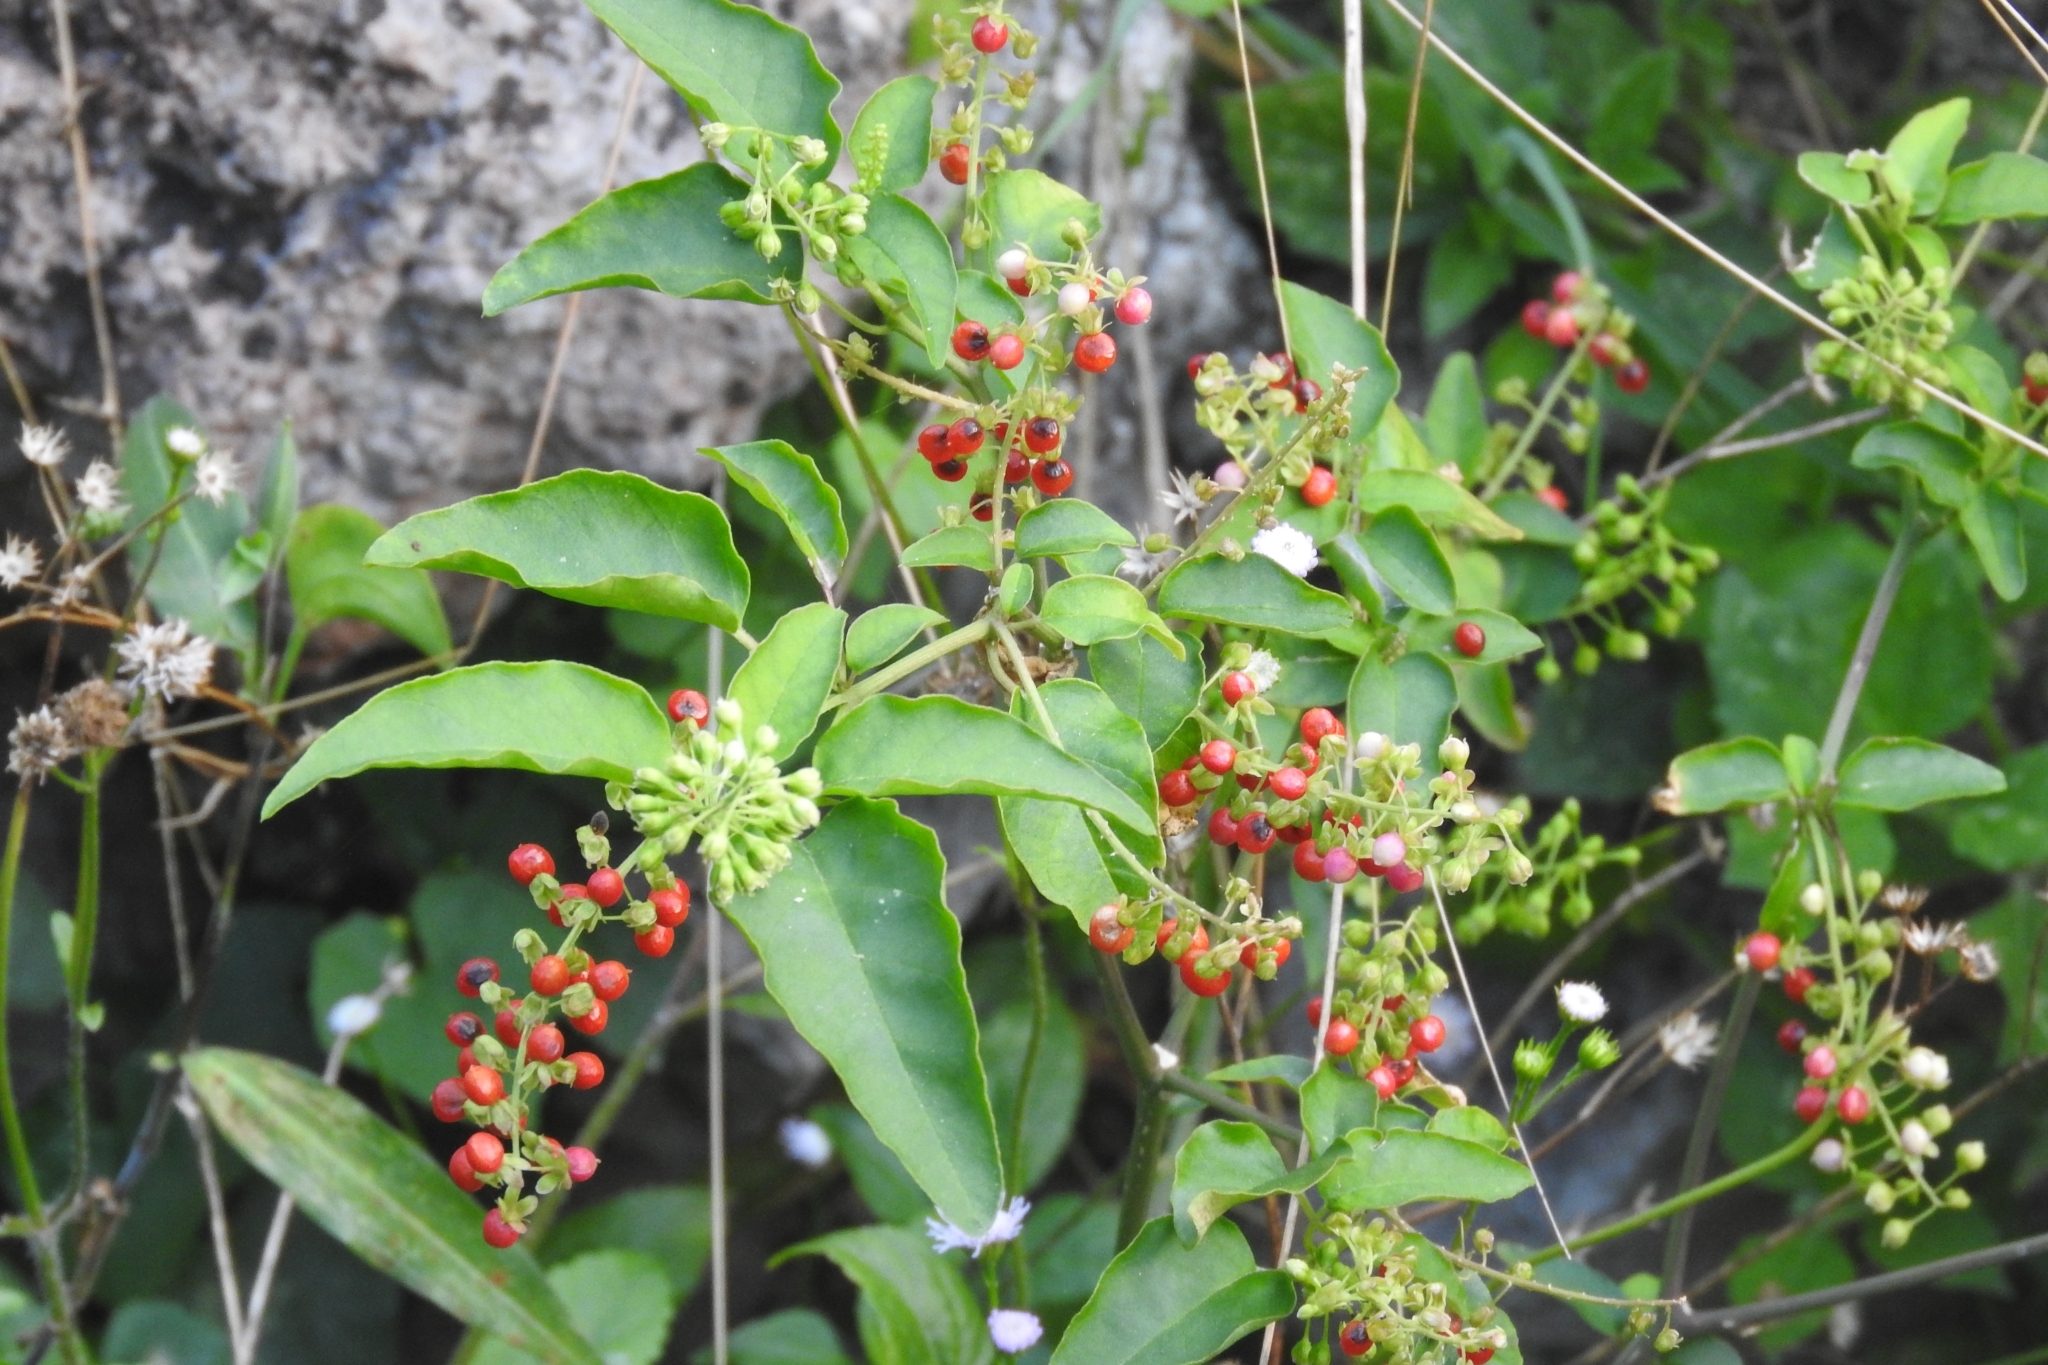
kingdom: Plantae
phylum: Tracheophyta
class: Magnoliopsida
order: Caryophyllales
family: Phytolaccaceae
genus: Rivina
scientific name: Rivina humilis
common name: Rougeplant
